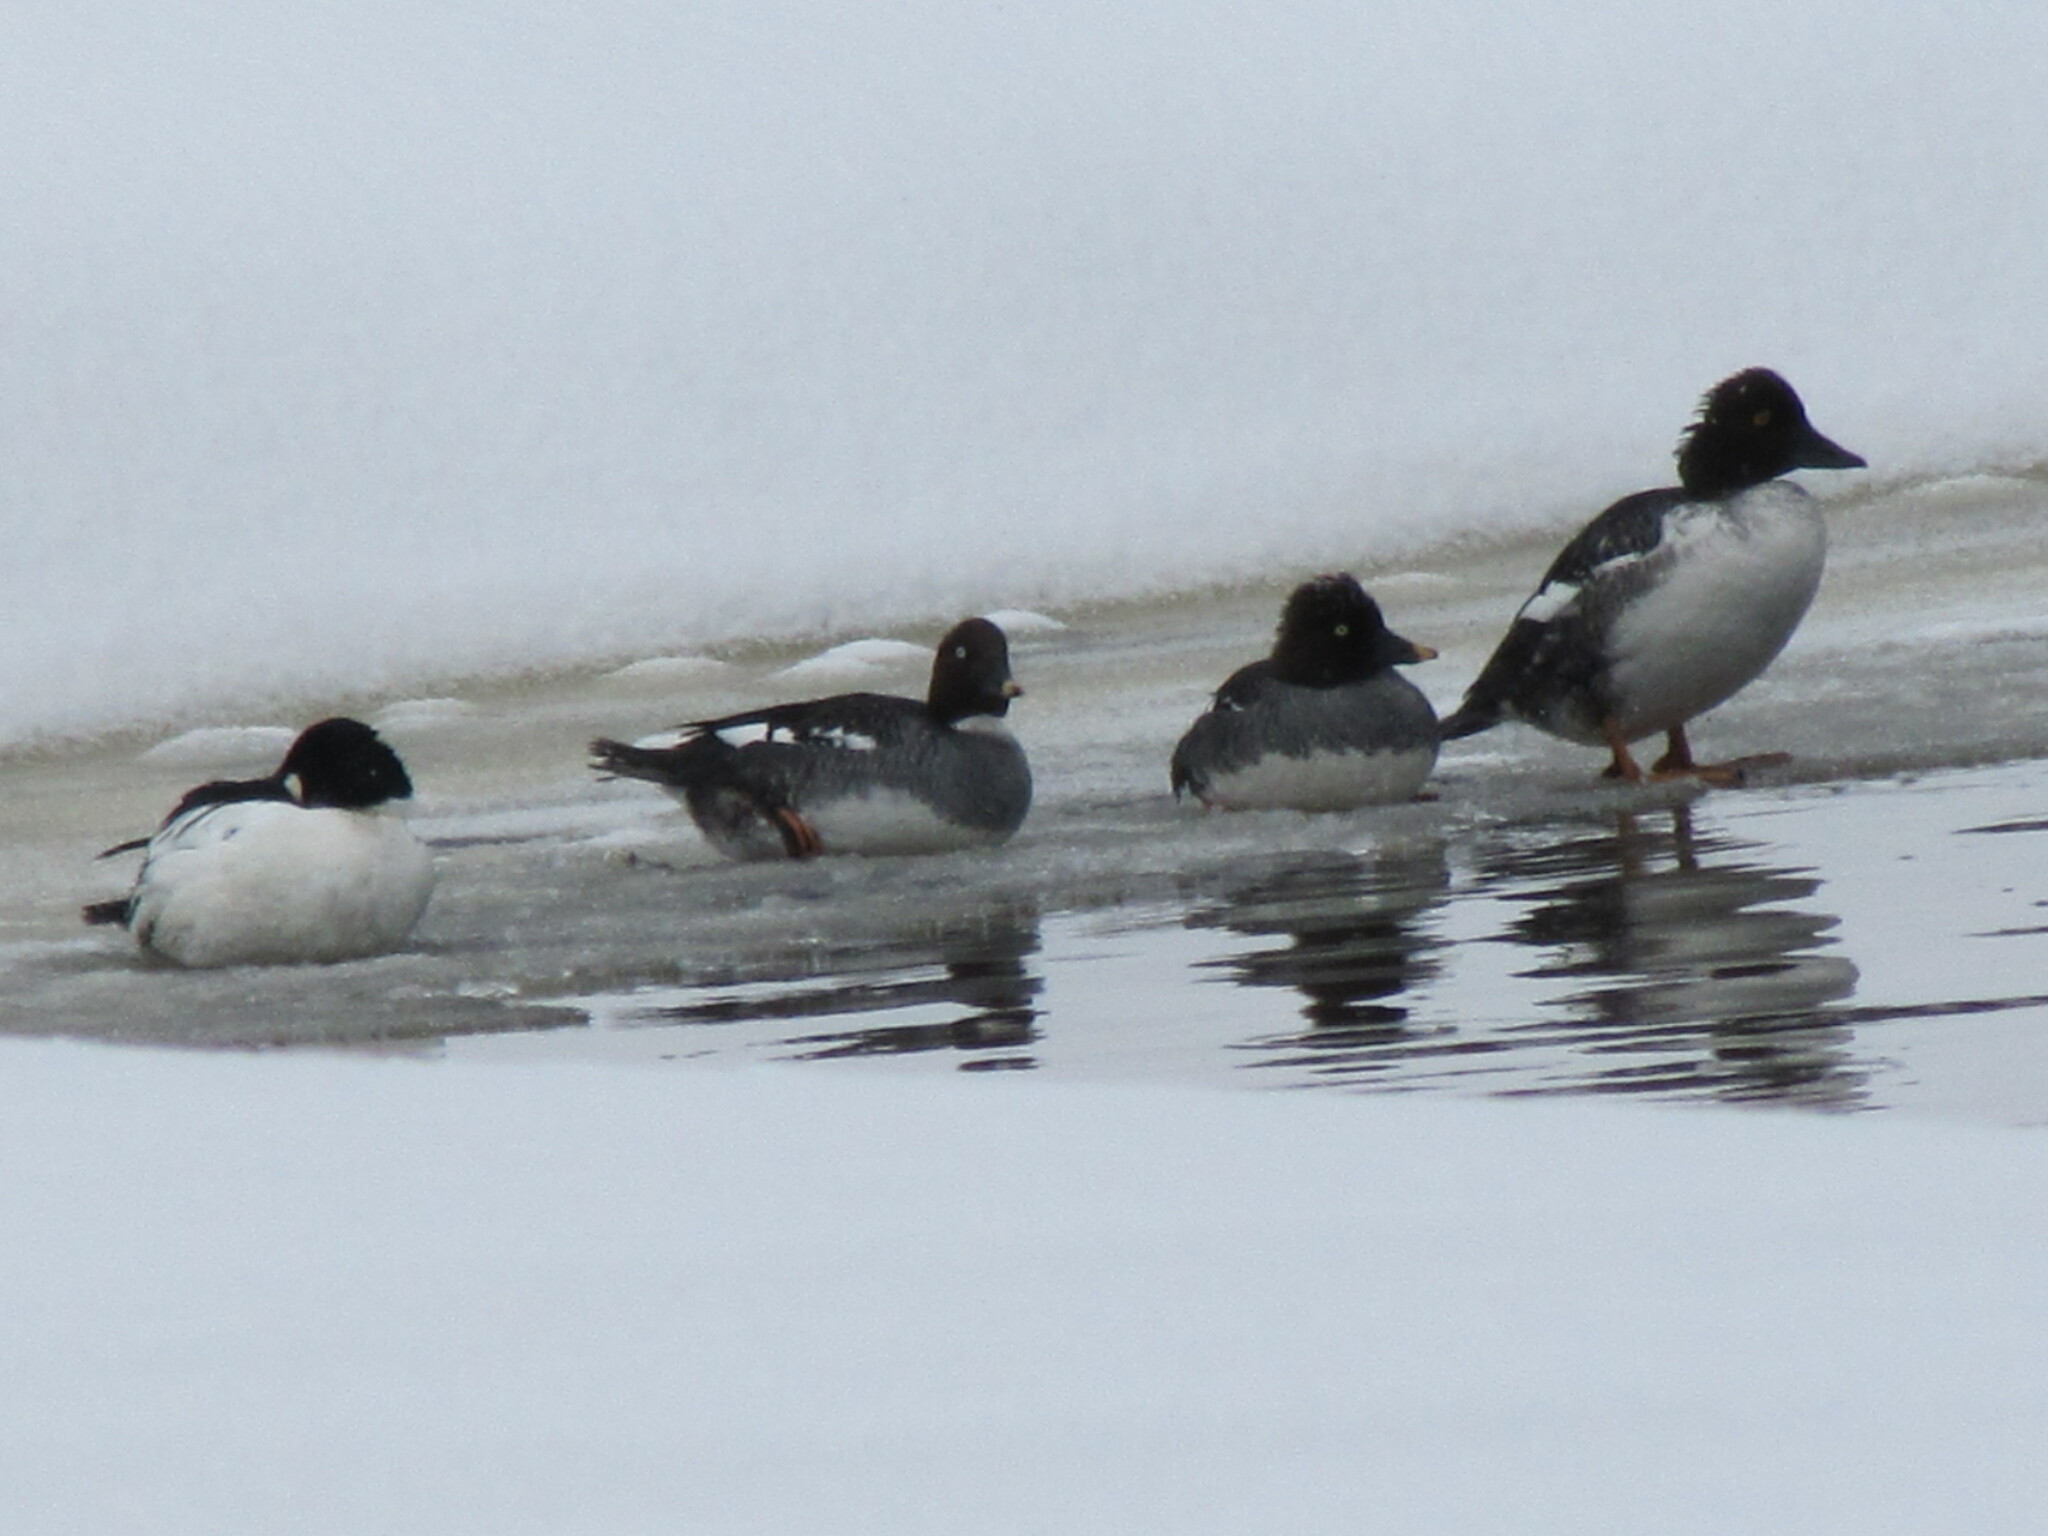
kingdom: Animalia
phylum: Chordata
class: Aves
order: Anseriformes
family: Anatidae
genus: Bucephala
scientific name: Bucephala clangula
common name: Common goldeneye
